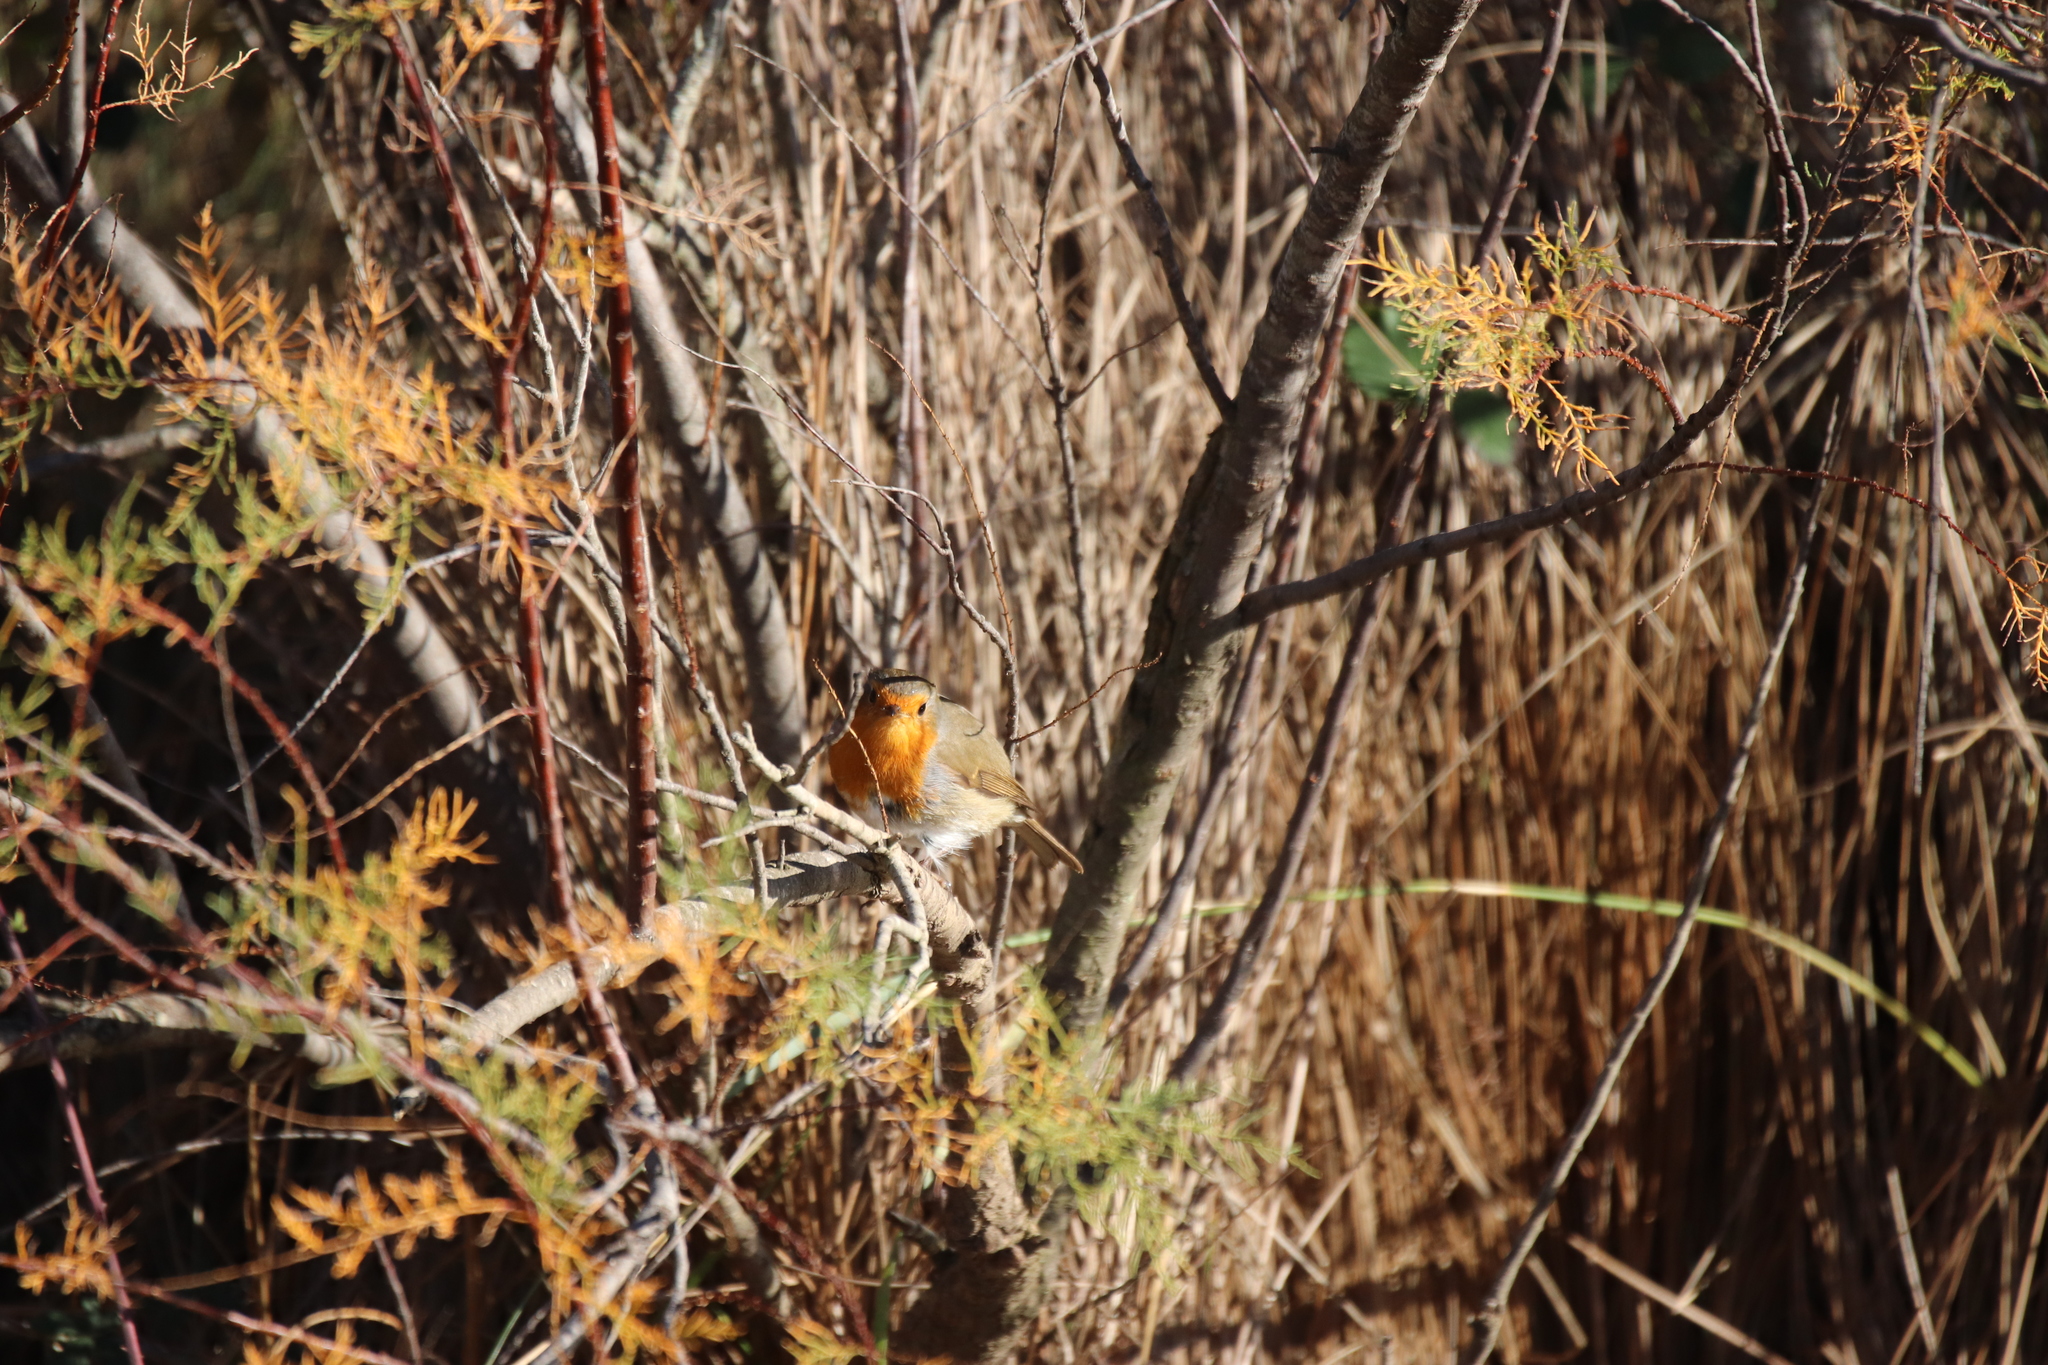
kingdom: Animalia
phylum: Chordata
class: Aves
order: Passeriformes
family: Muscicapidae
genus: Erithacus
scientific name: Erithacus rubecula
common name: European robin
